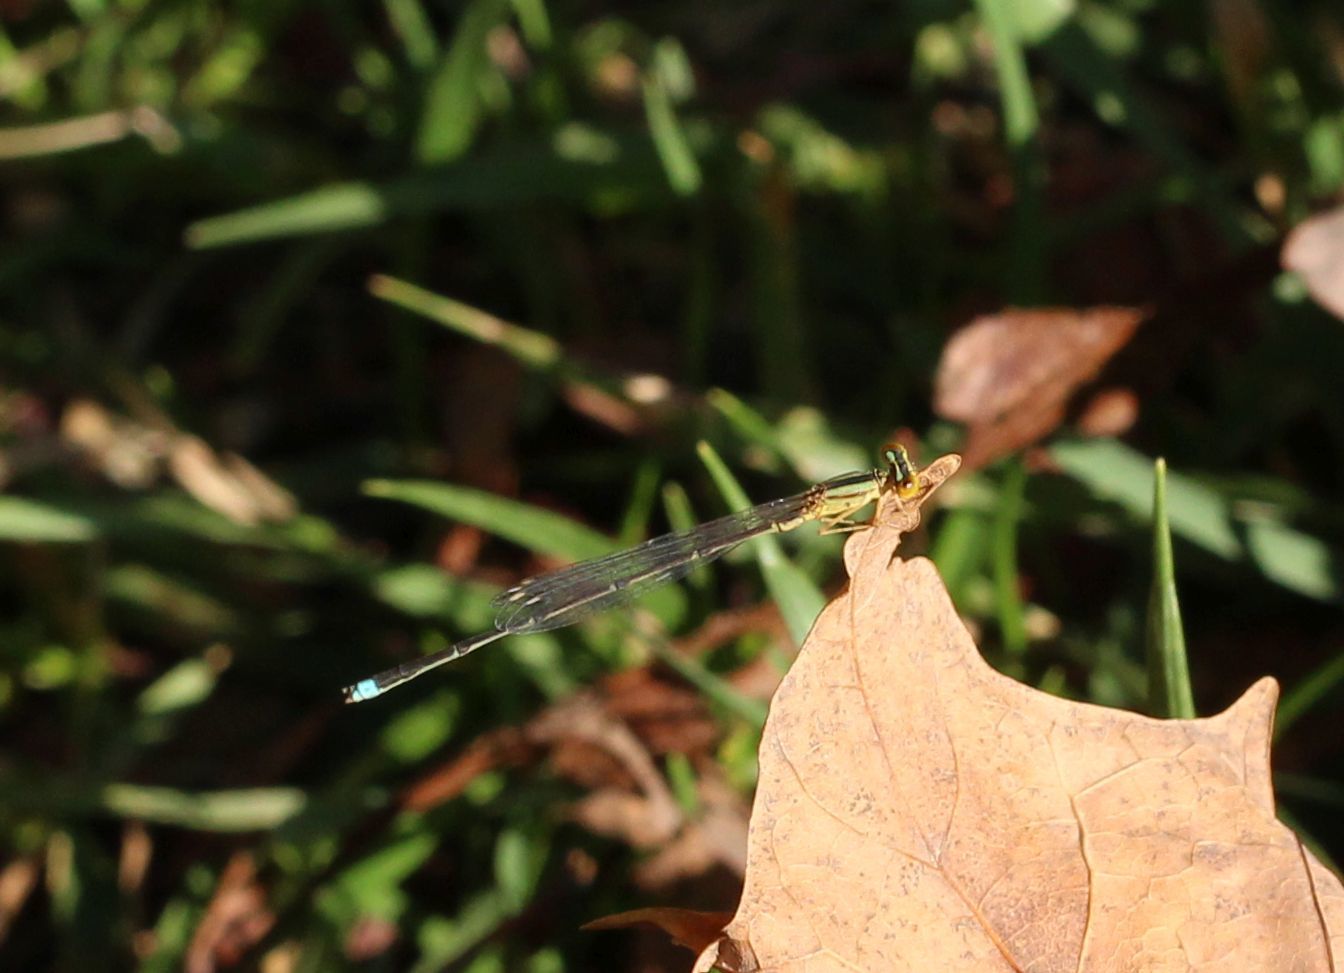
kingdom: Animalia
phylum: Arthropoda
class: Insecta
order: Odonata
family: Coenagrionidae
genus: Enallagma
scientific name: Enallagma vesperum
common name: Vesper bluet
